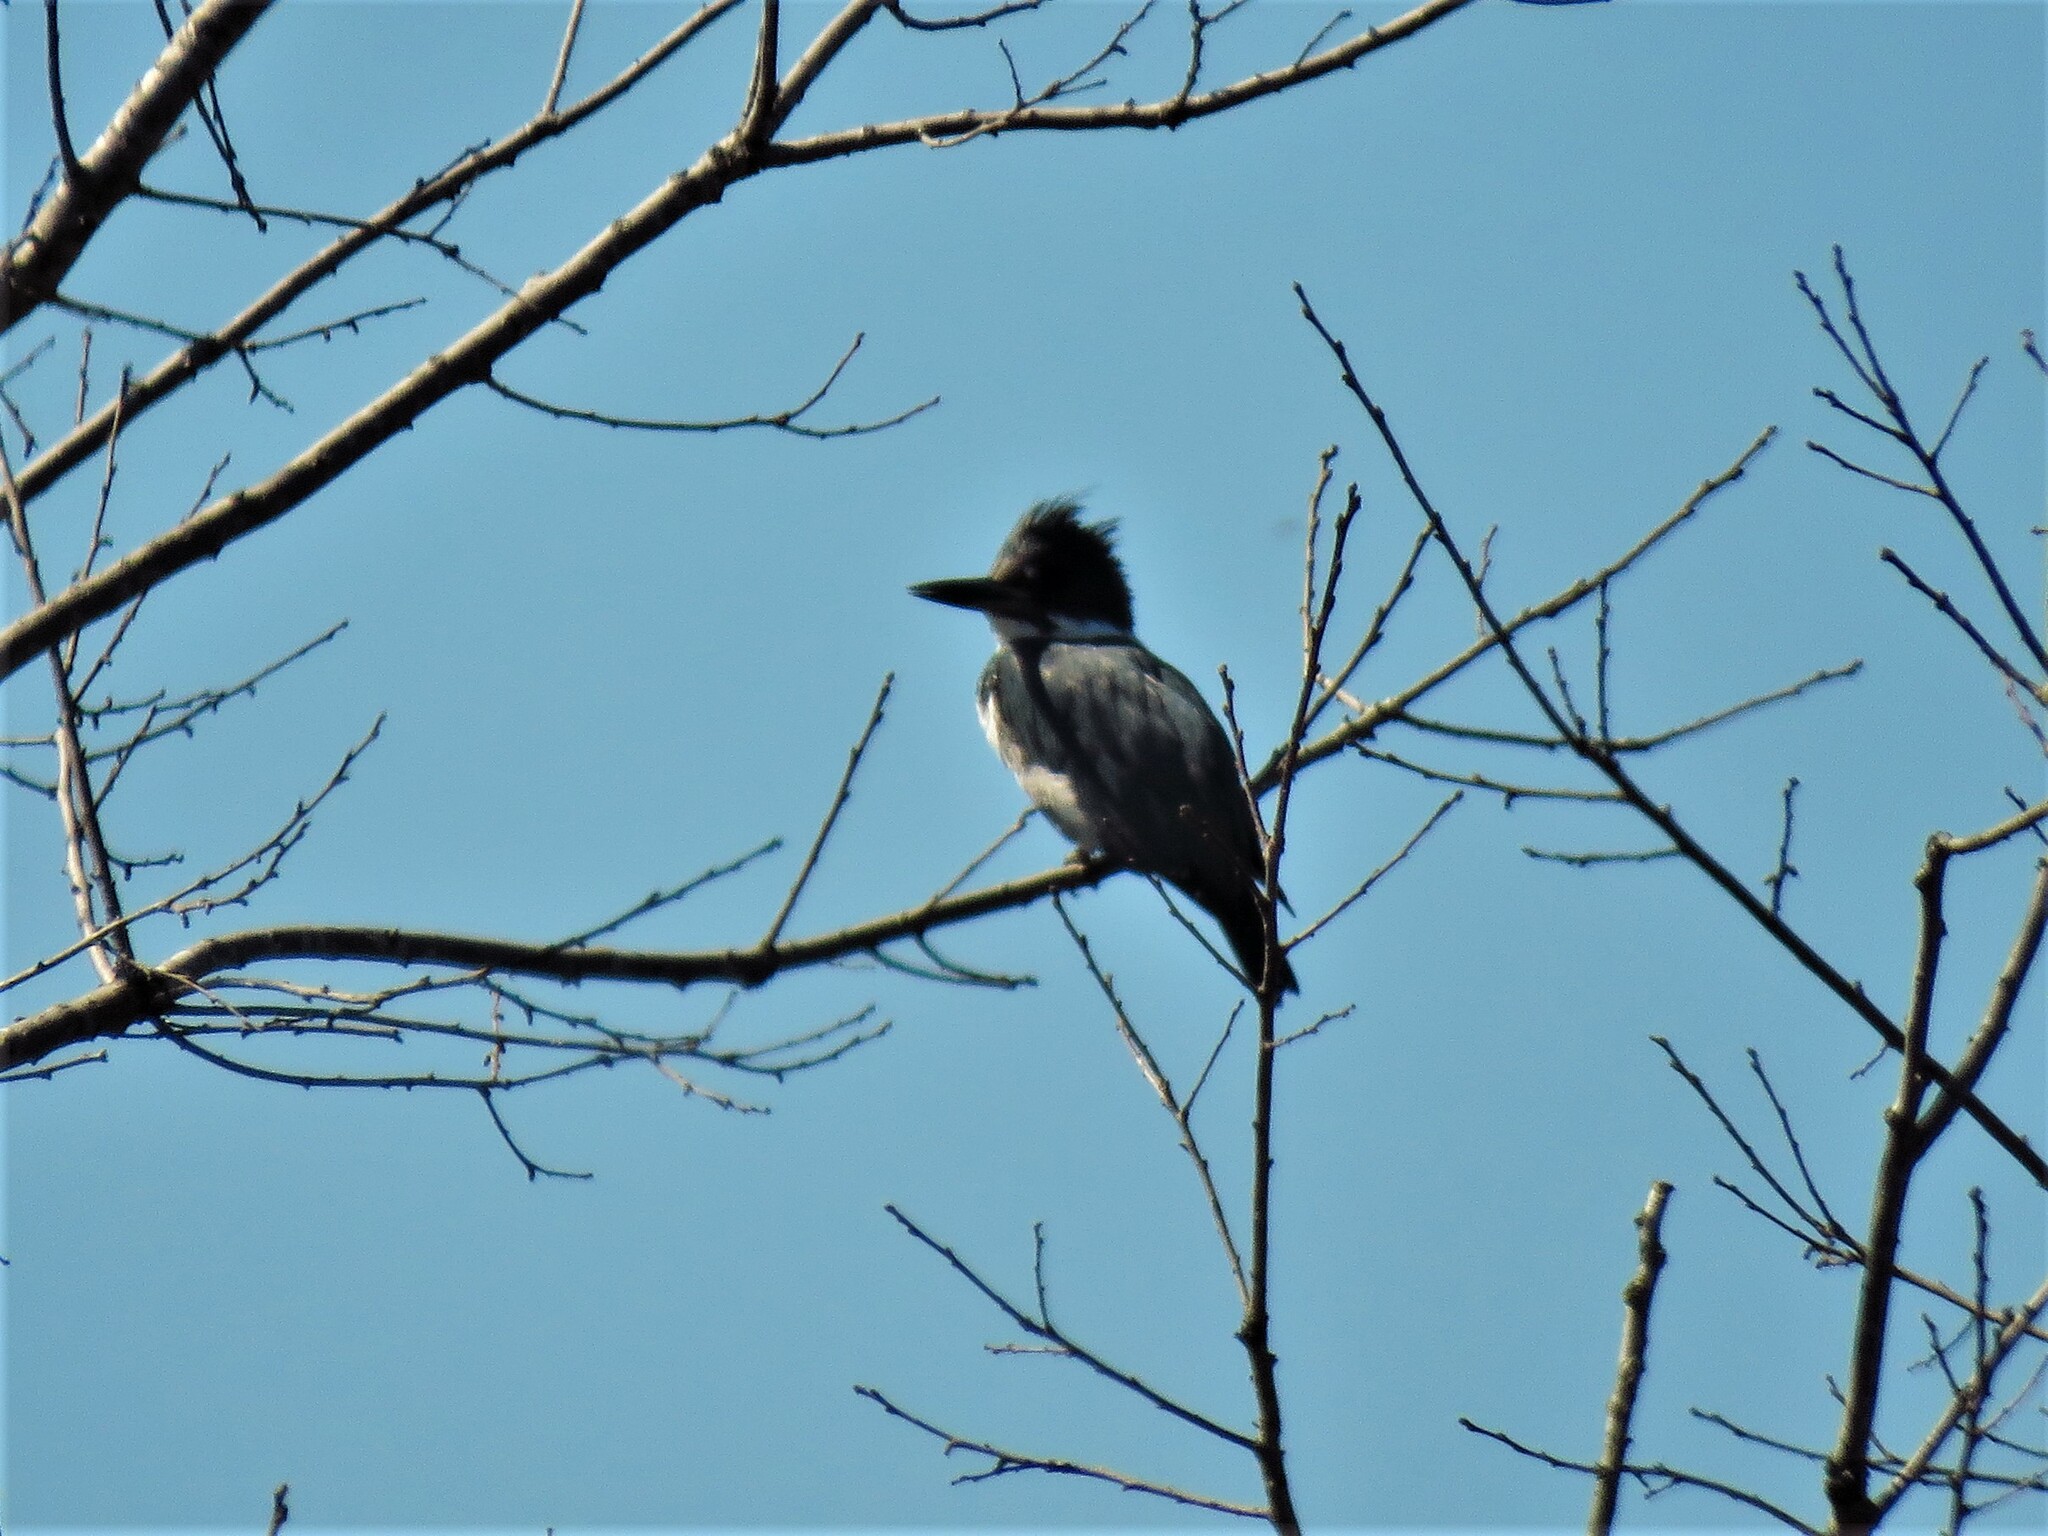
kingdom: Animalia
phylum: Chordata
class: Aves
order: Coraciiformes
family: Alcedinidae
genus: Megaceryle
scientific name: Megaceryle alcyon
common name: Belted kingfisher
